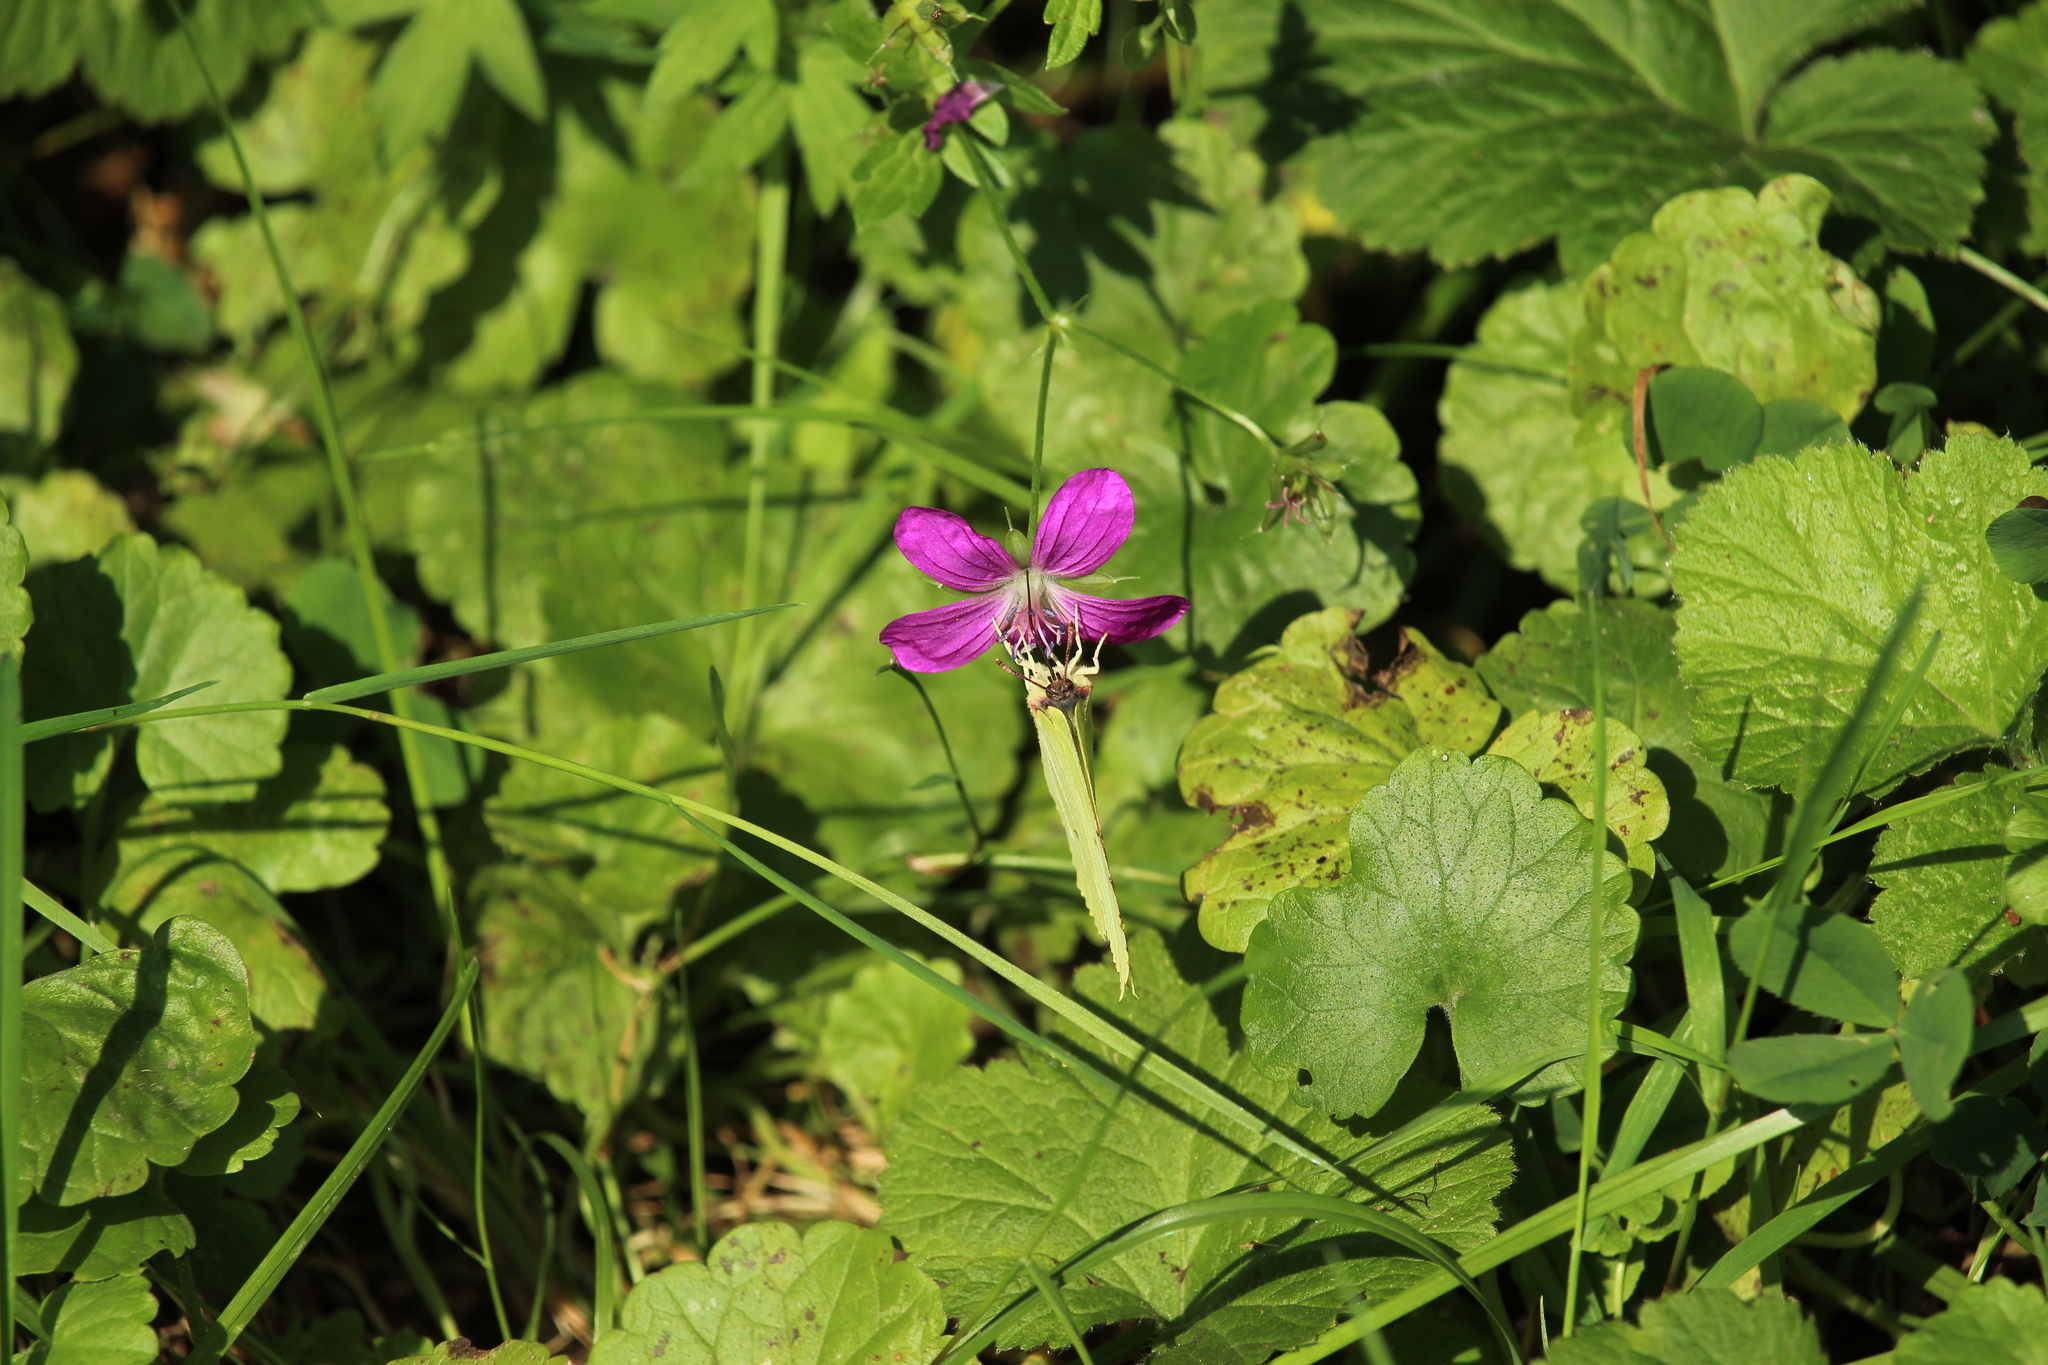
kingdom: Animalia
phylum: Arthropoda
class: Insecta
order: Lepidoptera
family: Pieridae
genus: Gonepteryx
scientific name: Gonepteryx rhamni
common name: Brimstone
